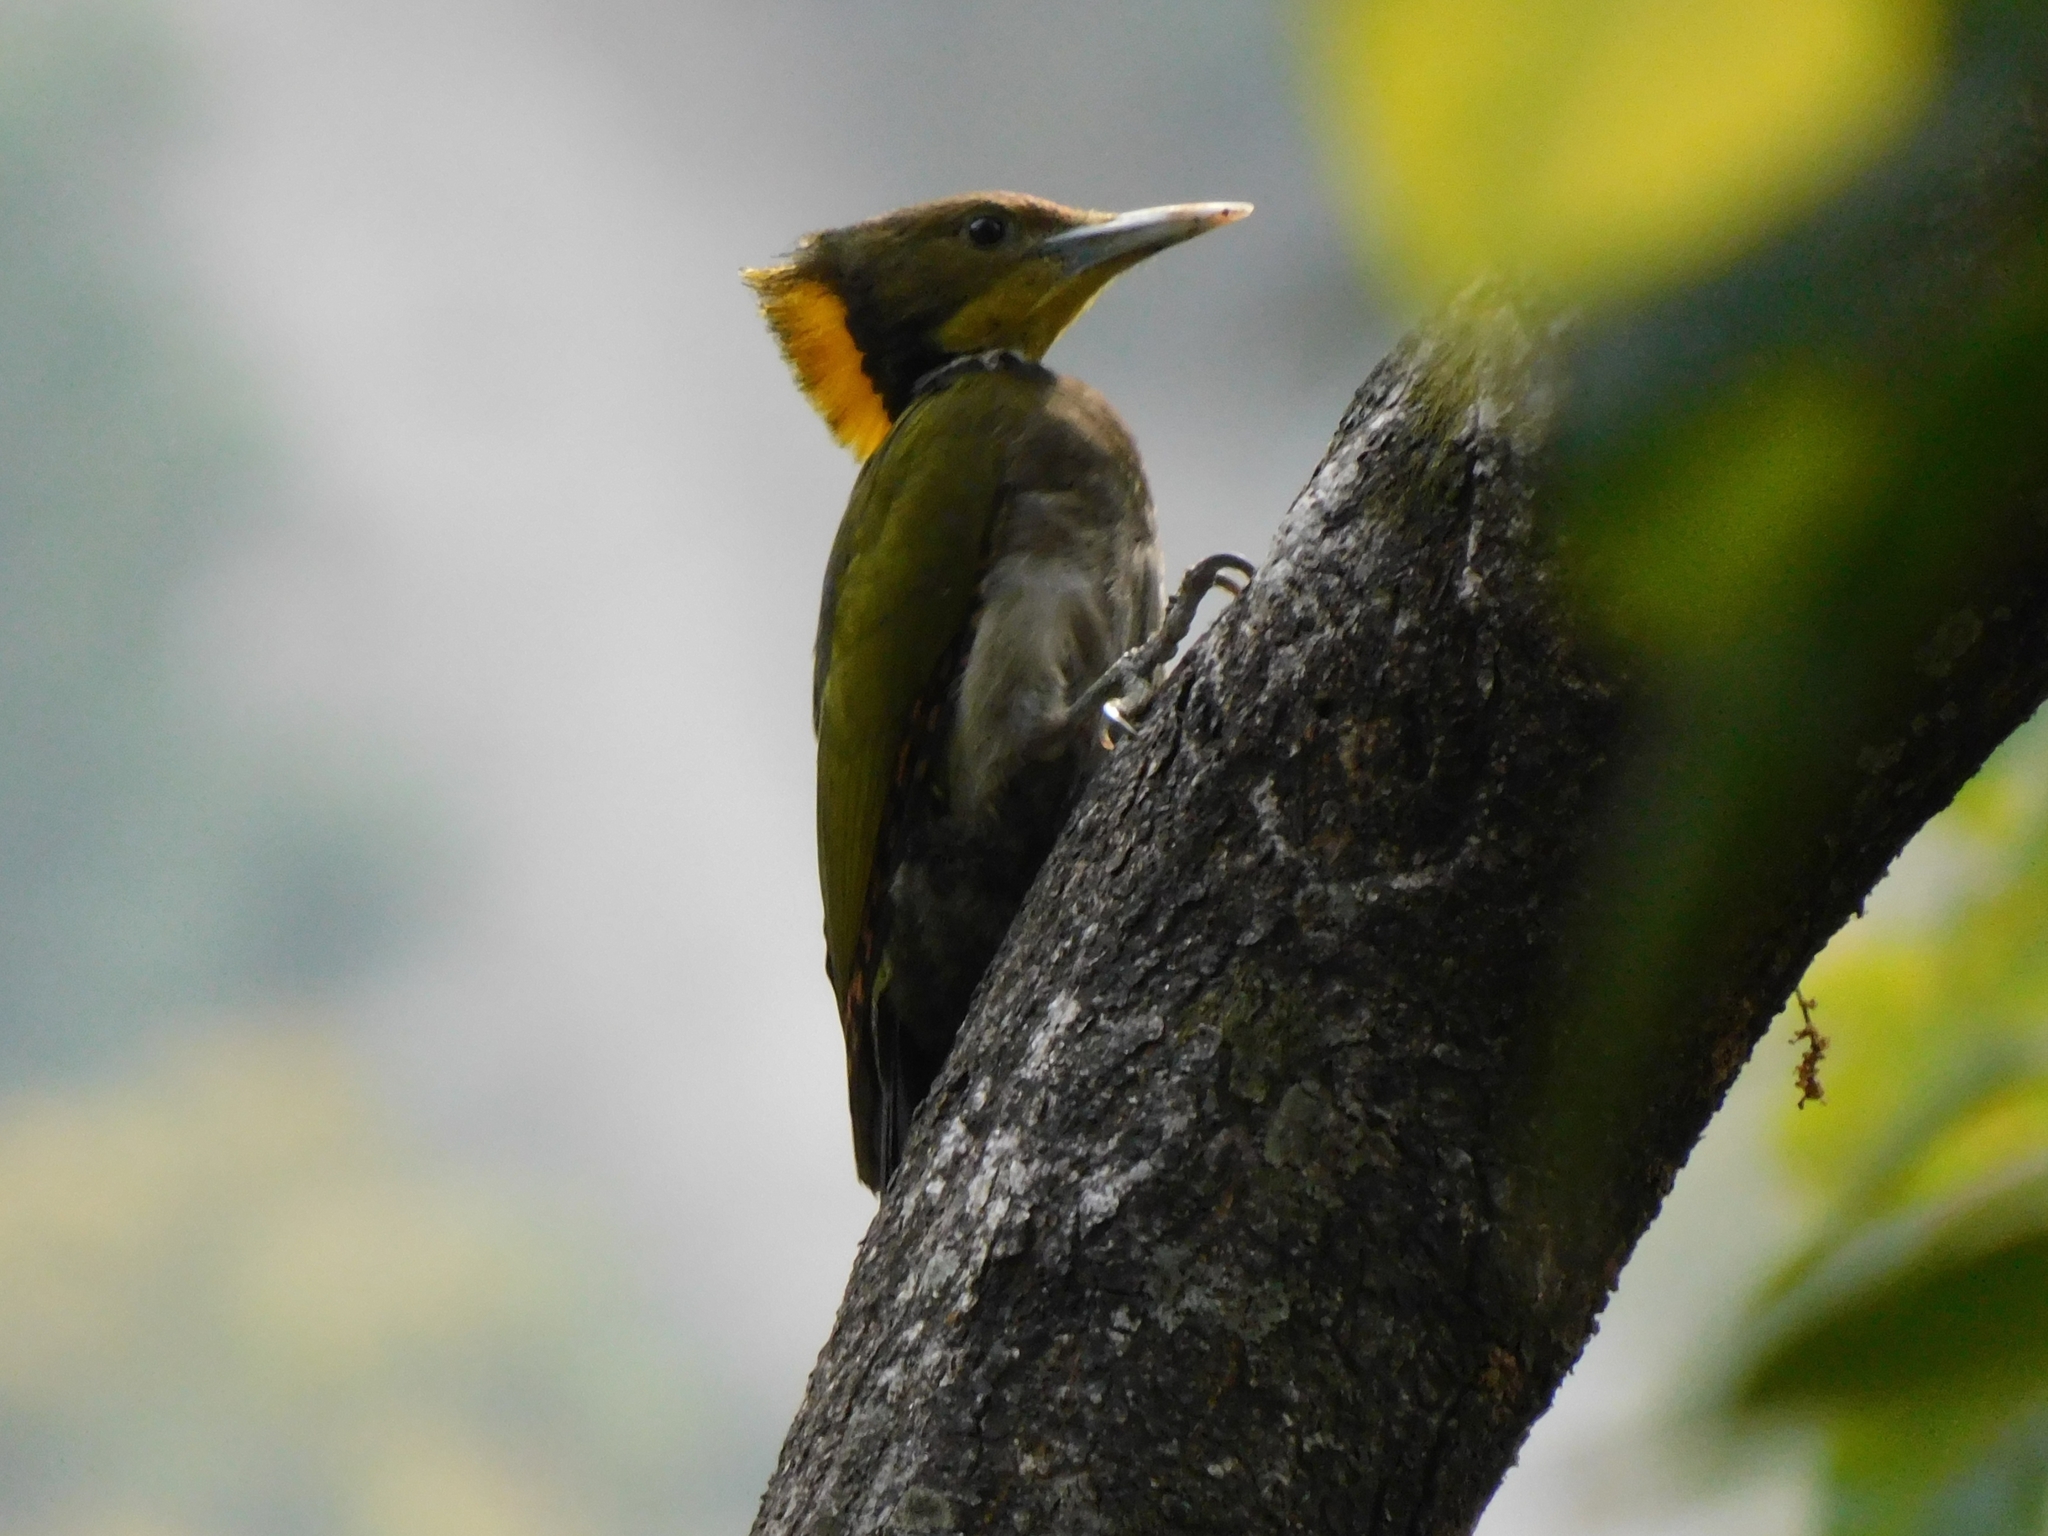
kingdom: Animalia
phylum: Chordata
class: Aves
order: Piciformes
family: Picidae
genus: Chrysophlegma
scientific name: Chrysophlegma flavinucha
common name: Greater yellownape
